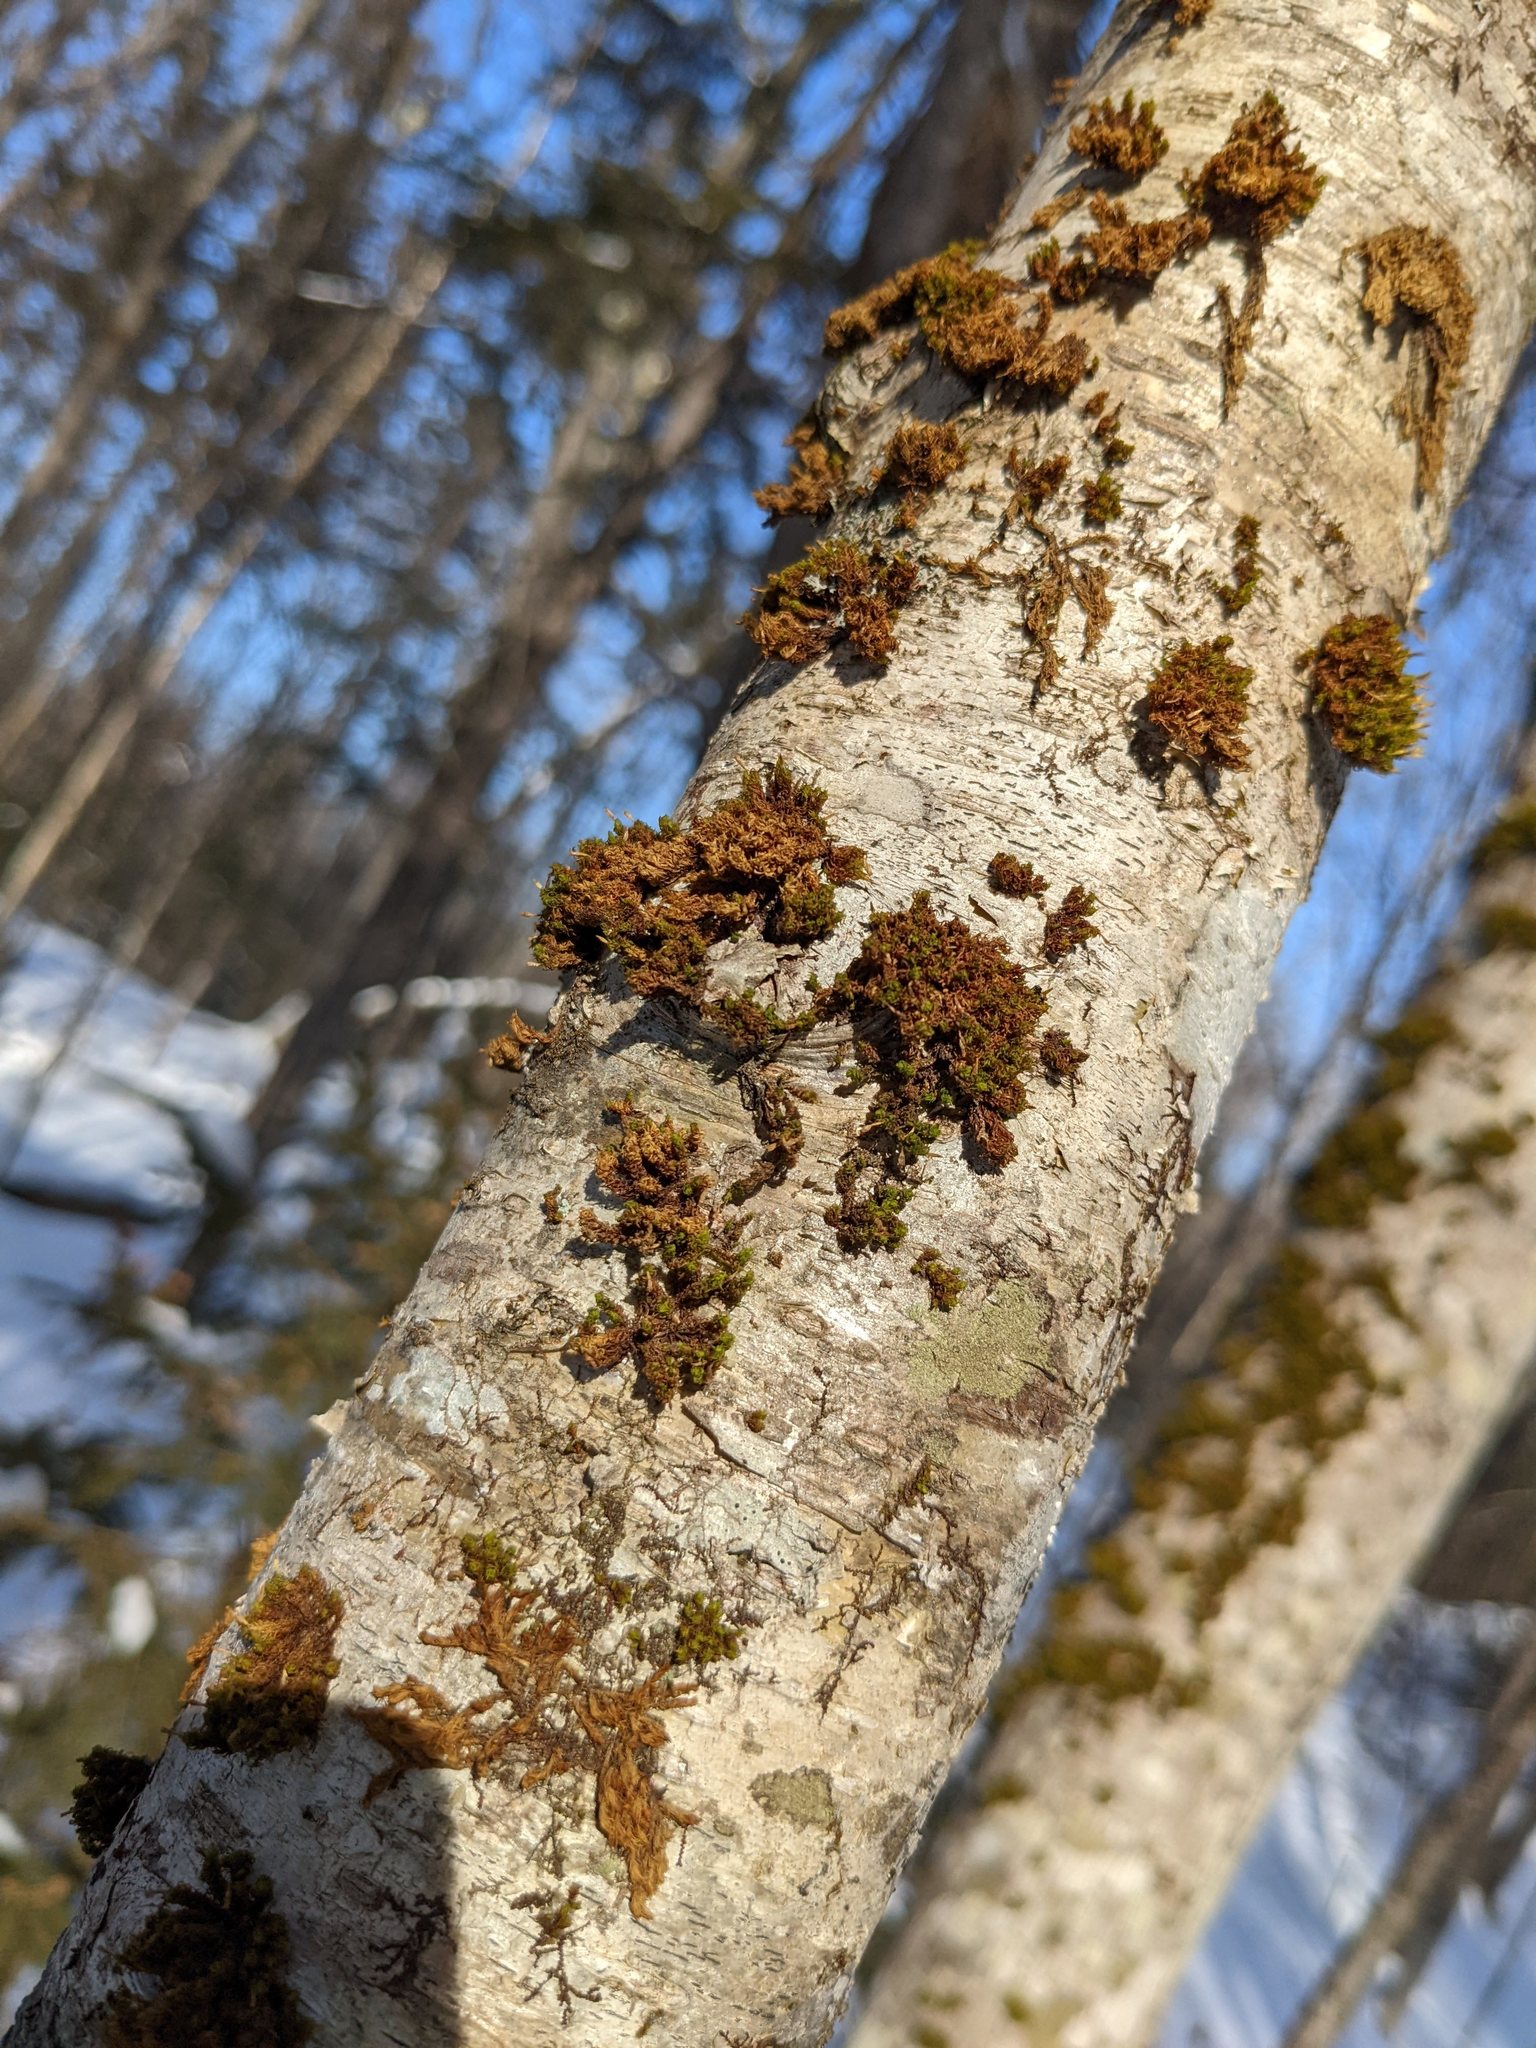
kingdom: Plantae
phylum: Bryophyta
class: Bryopsida
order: Orthotrichales
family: Orthotrichaceae
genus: Ulota
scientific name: Ulota crispa
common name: Crisped pincushion moss
